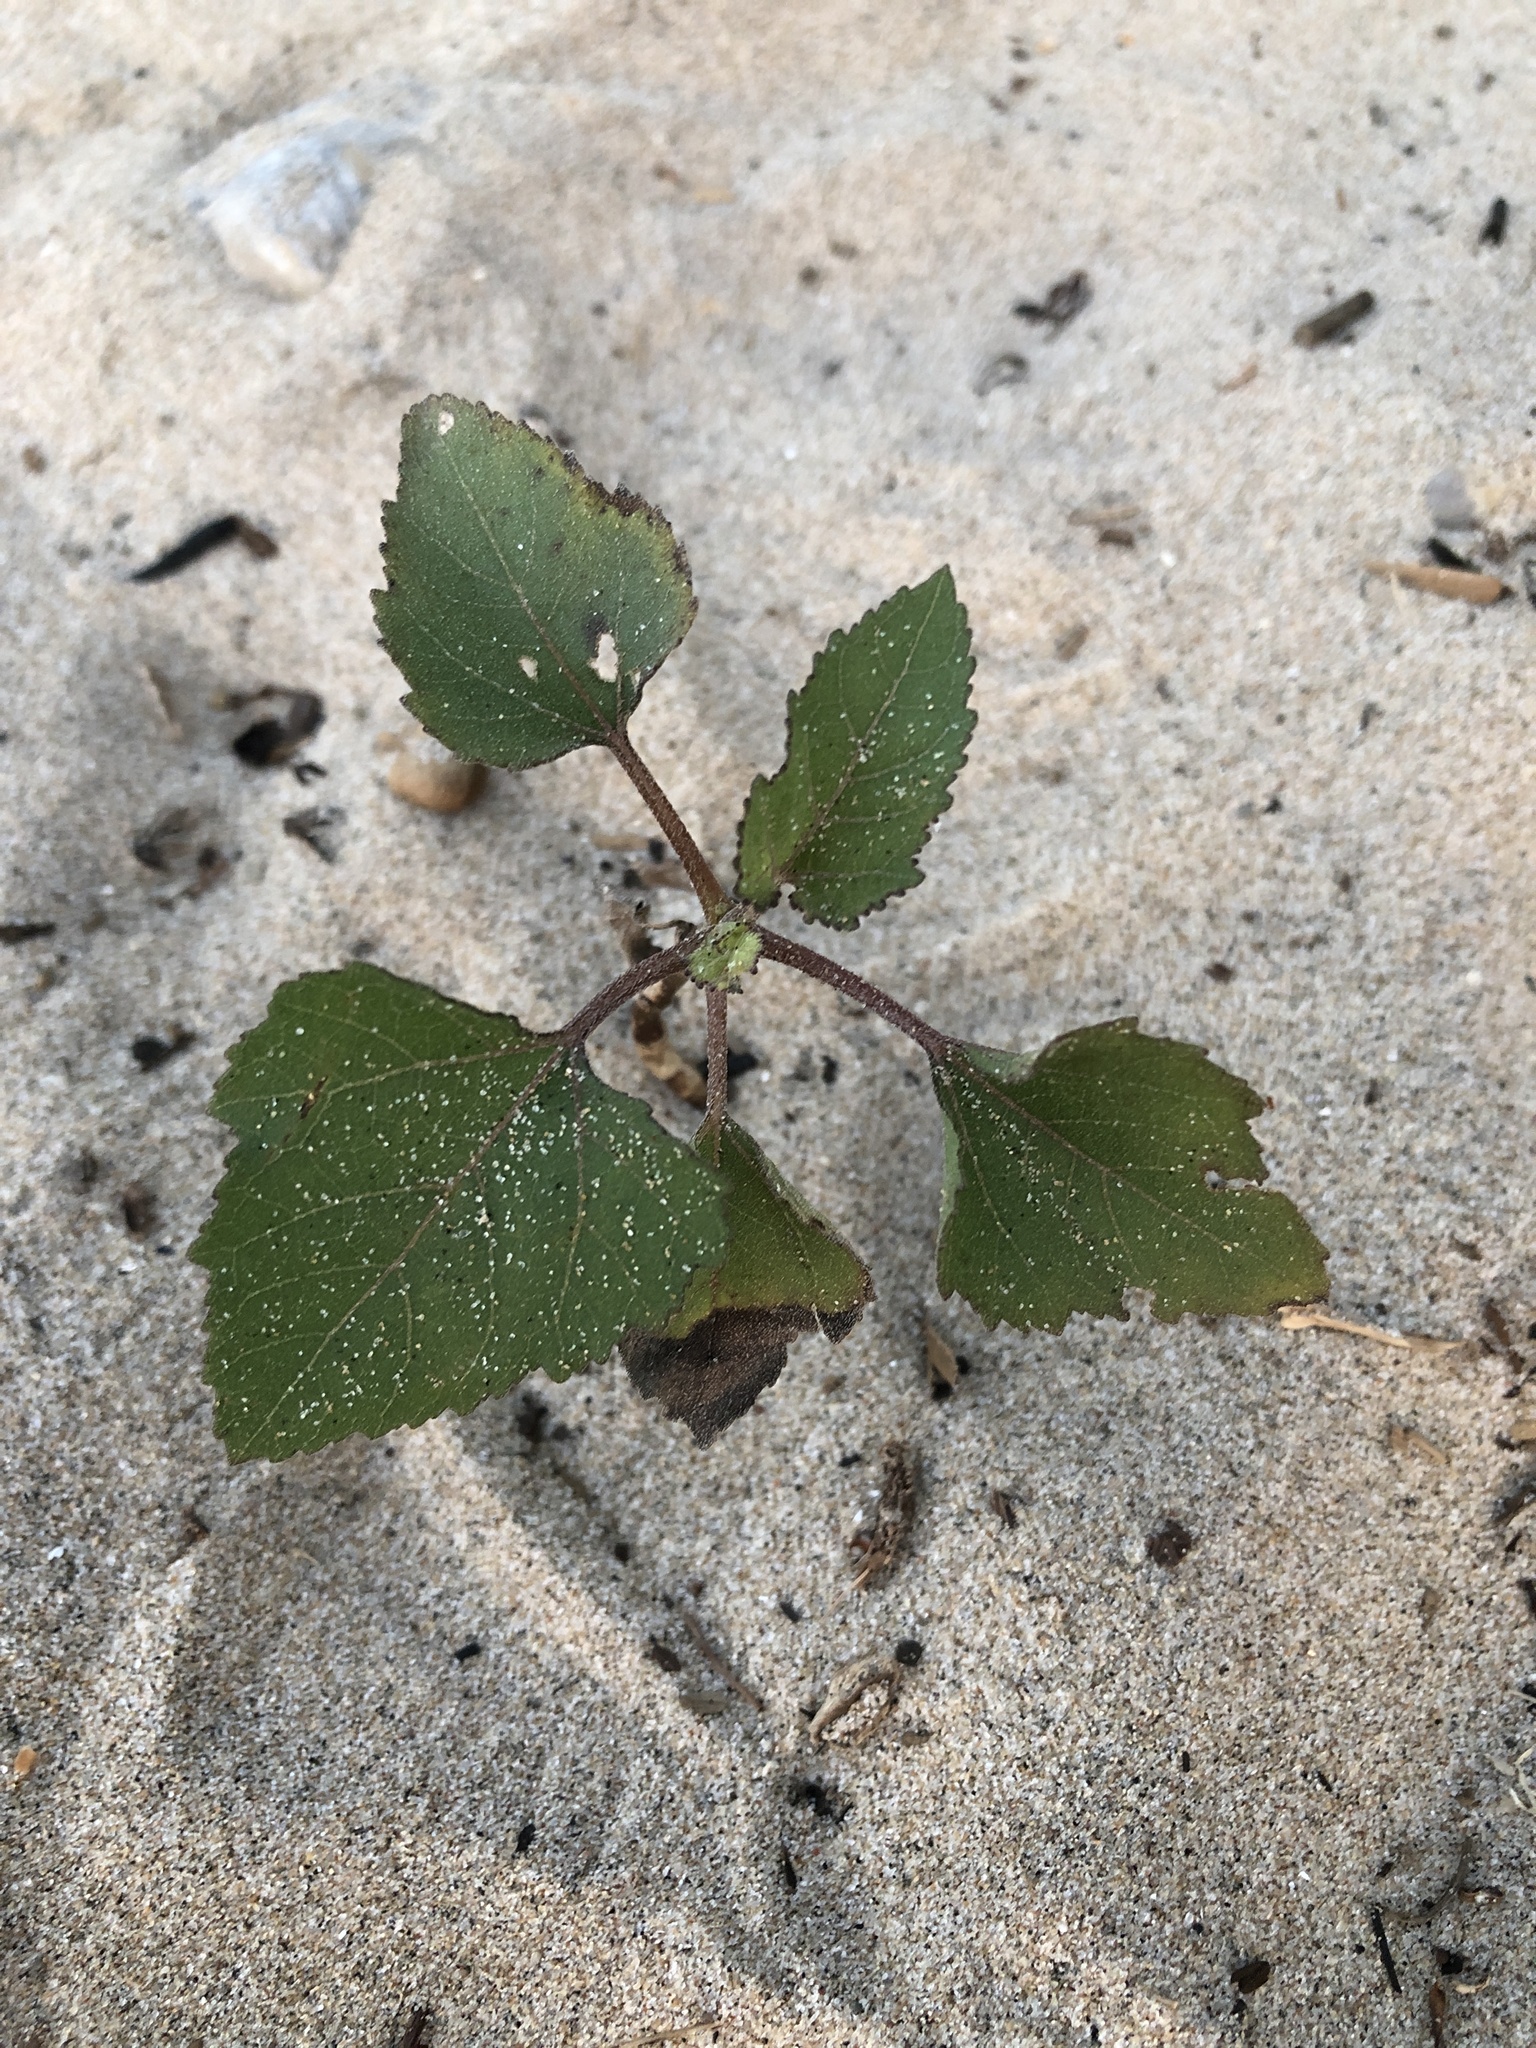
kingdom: Plantae
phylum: Tracheophyta
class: Magnoliopsida
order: Asterales
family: Asteraceae
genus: Xanthium
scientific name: Xanthium strumarium
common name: Rough cocklebur
